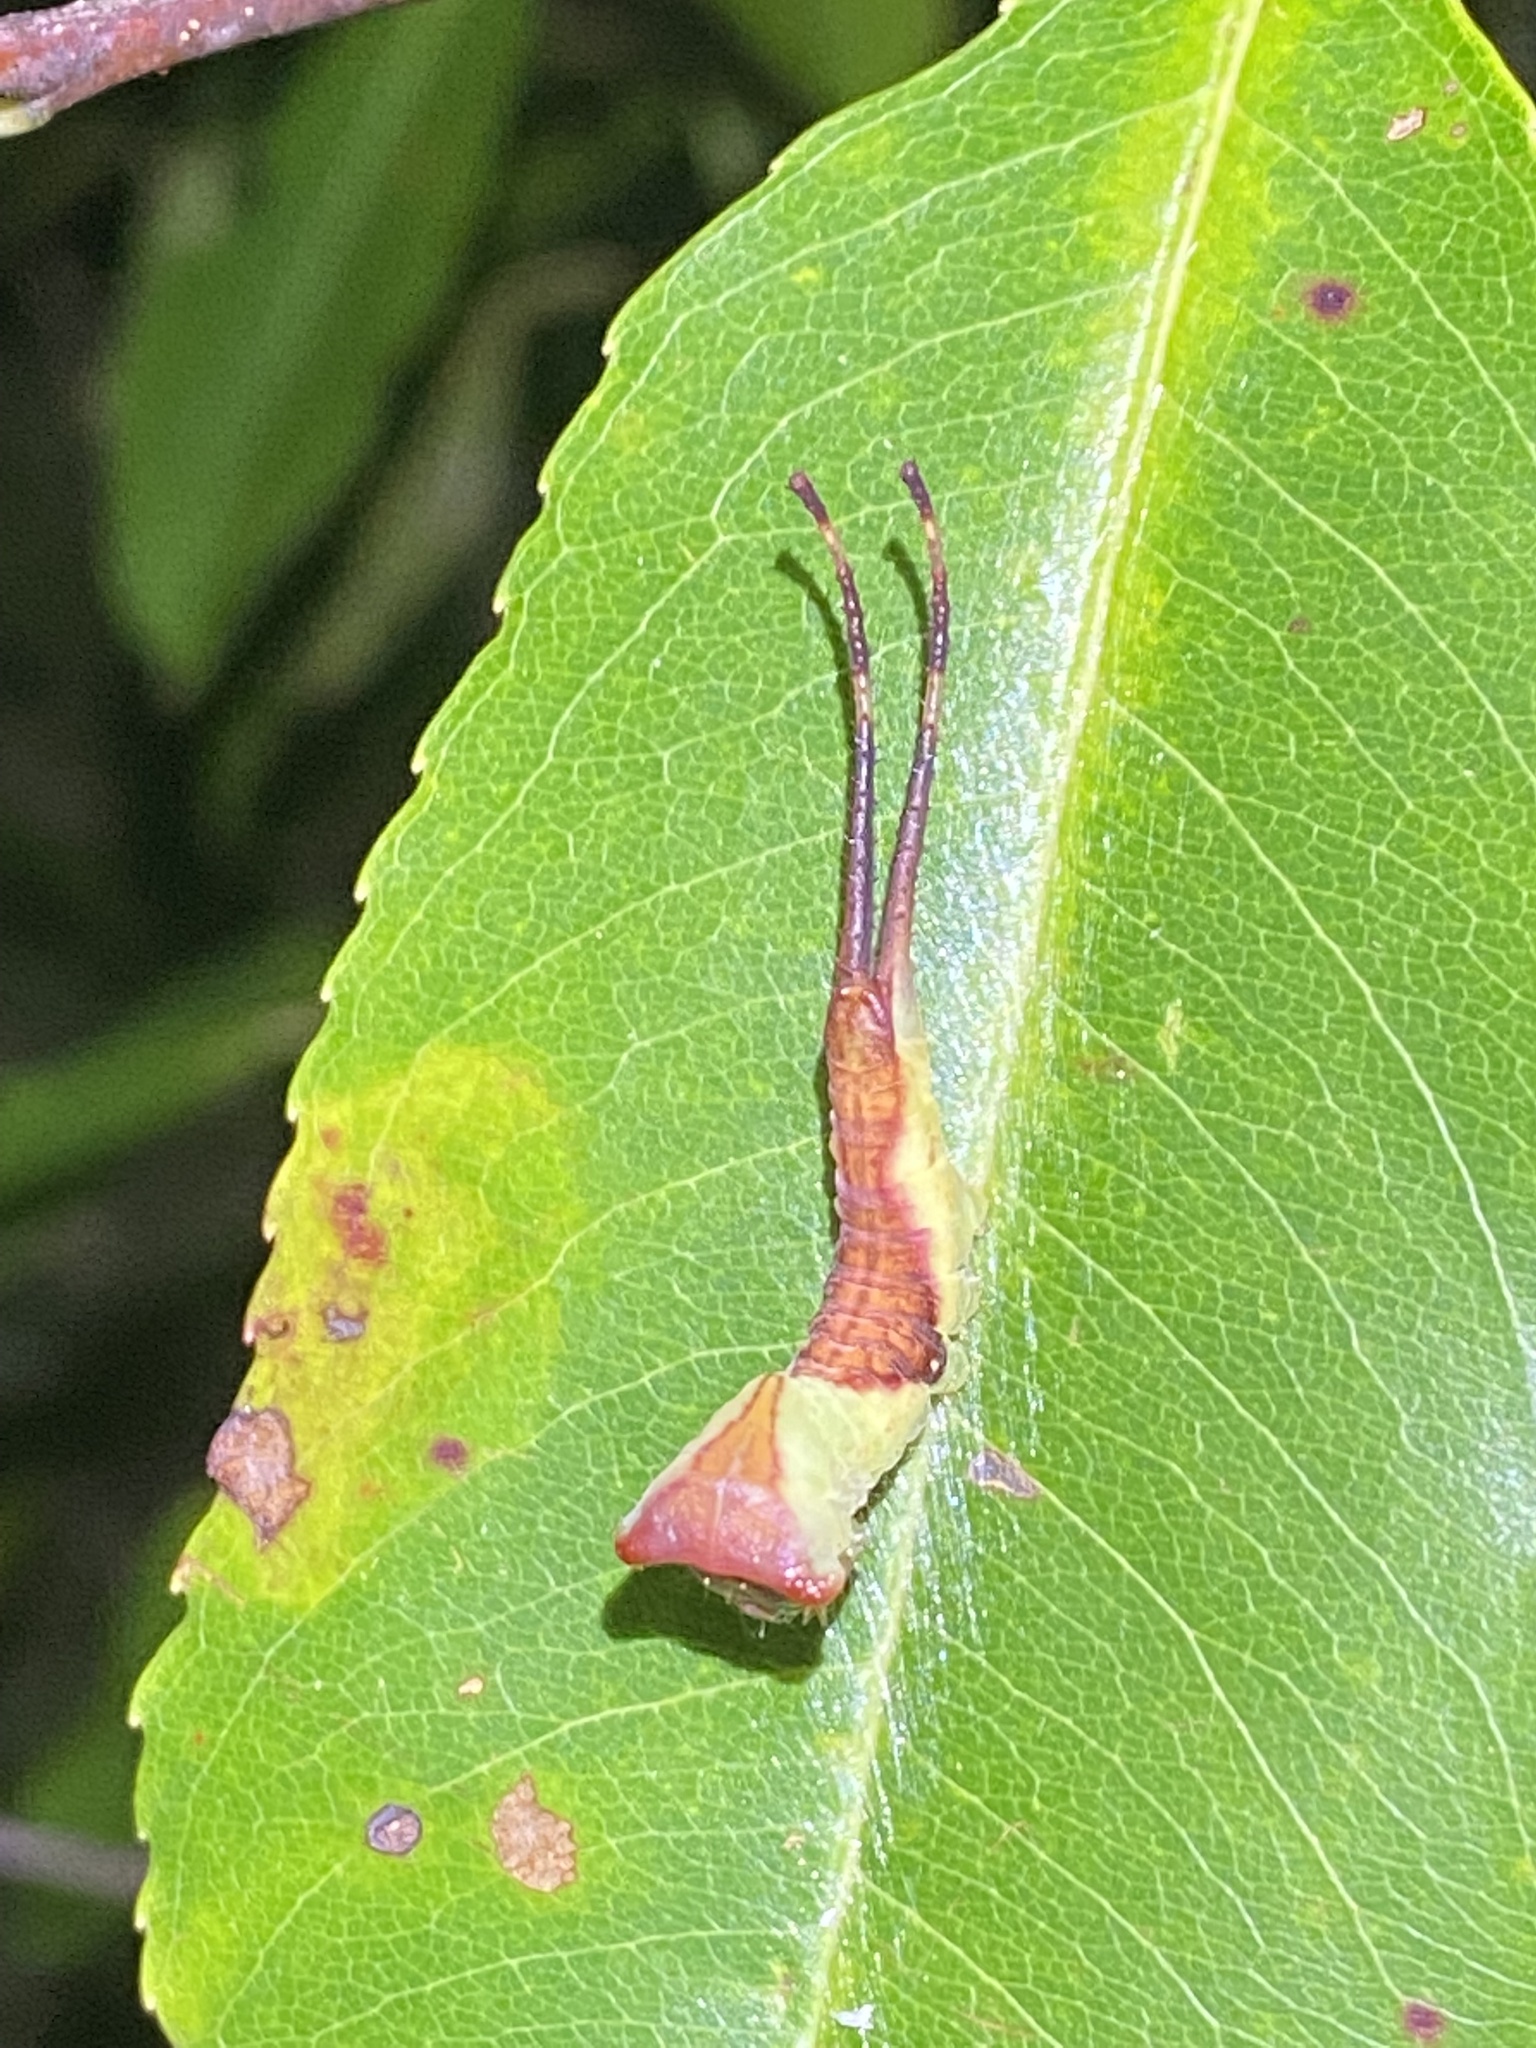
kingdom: Animalia
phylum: Arthropoda
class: Insecta
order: Lepidoptera
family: Notodontidae
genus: Furcula
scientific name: Furcula borealis
